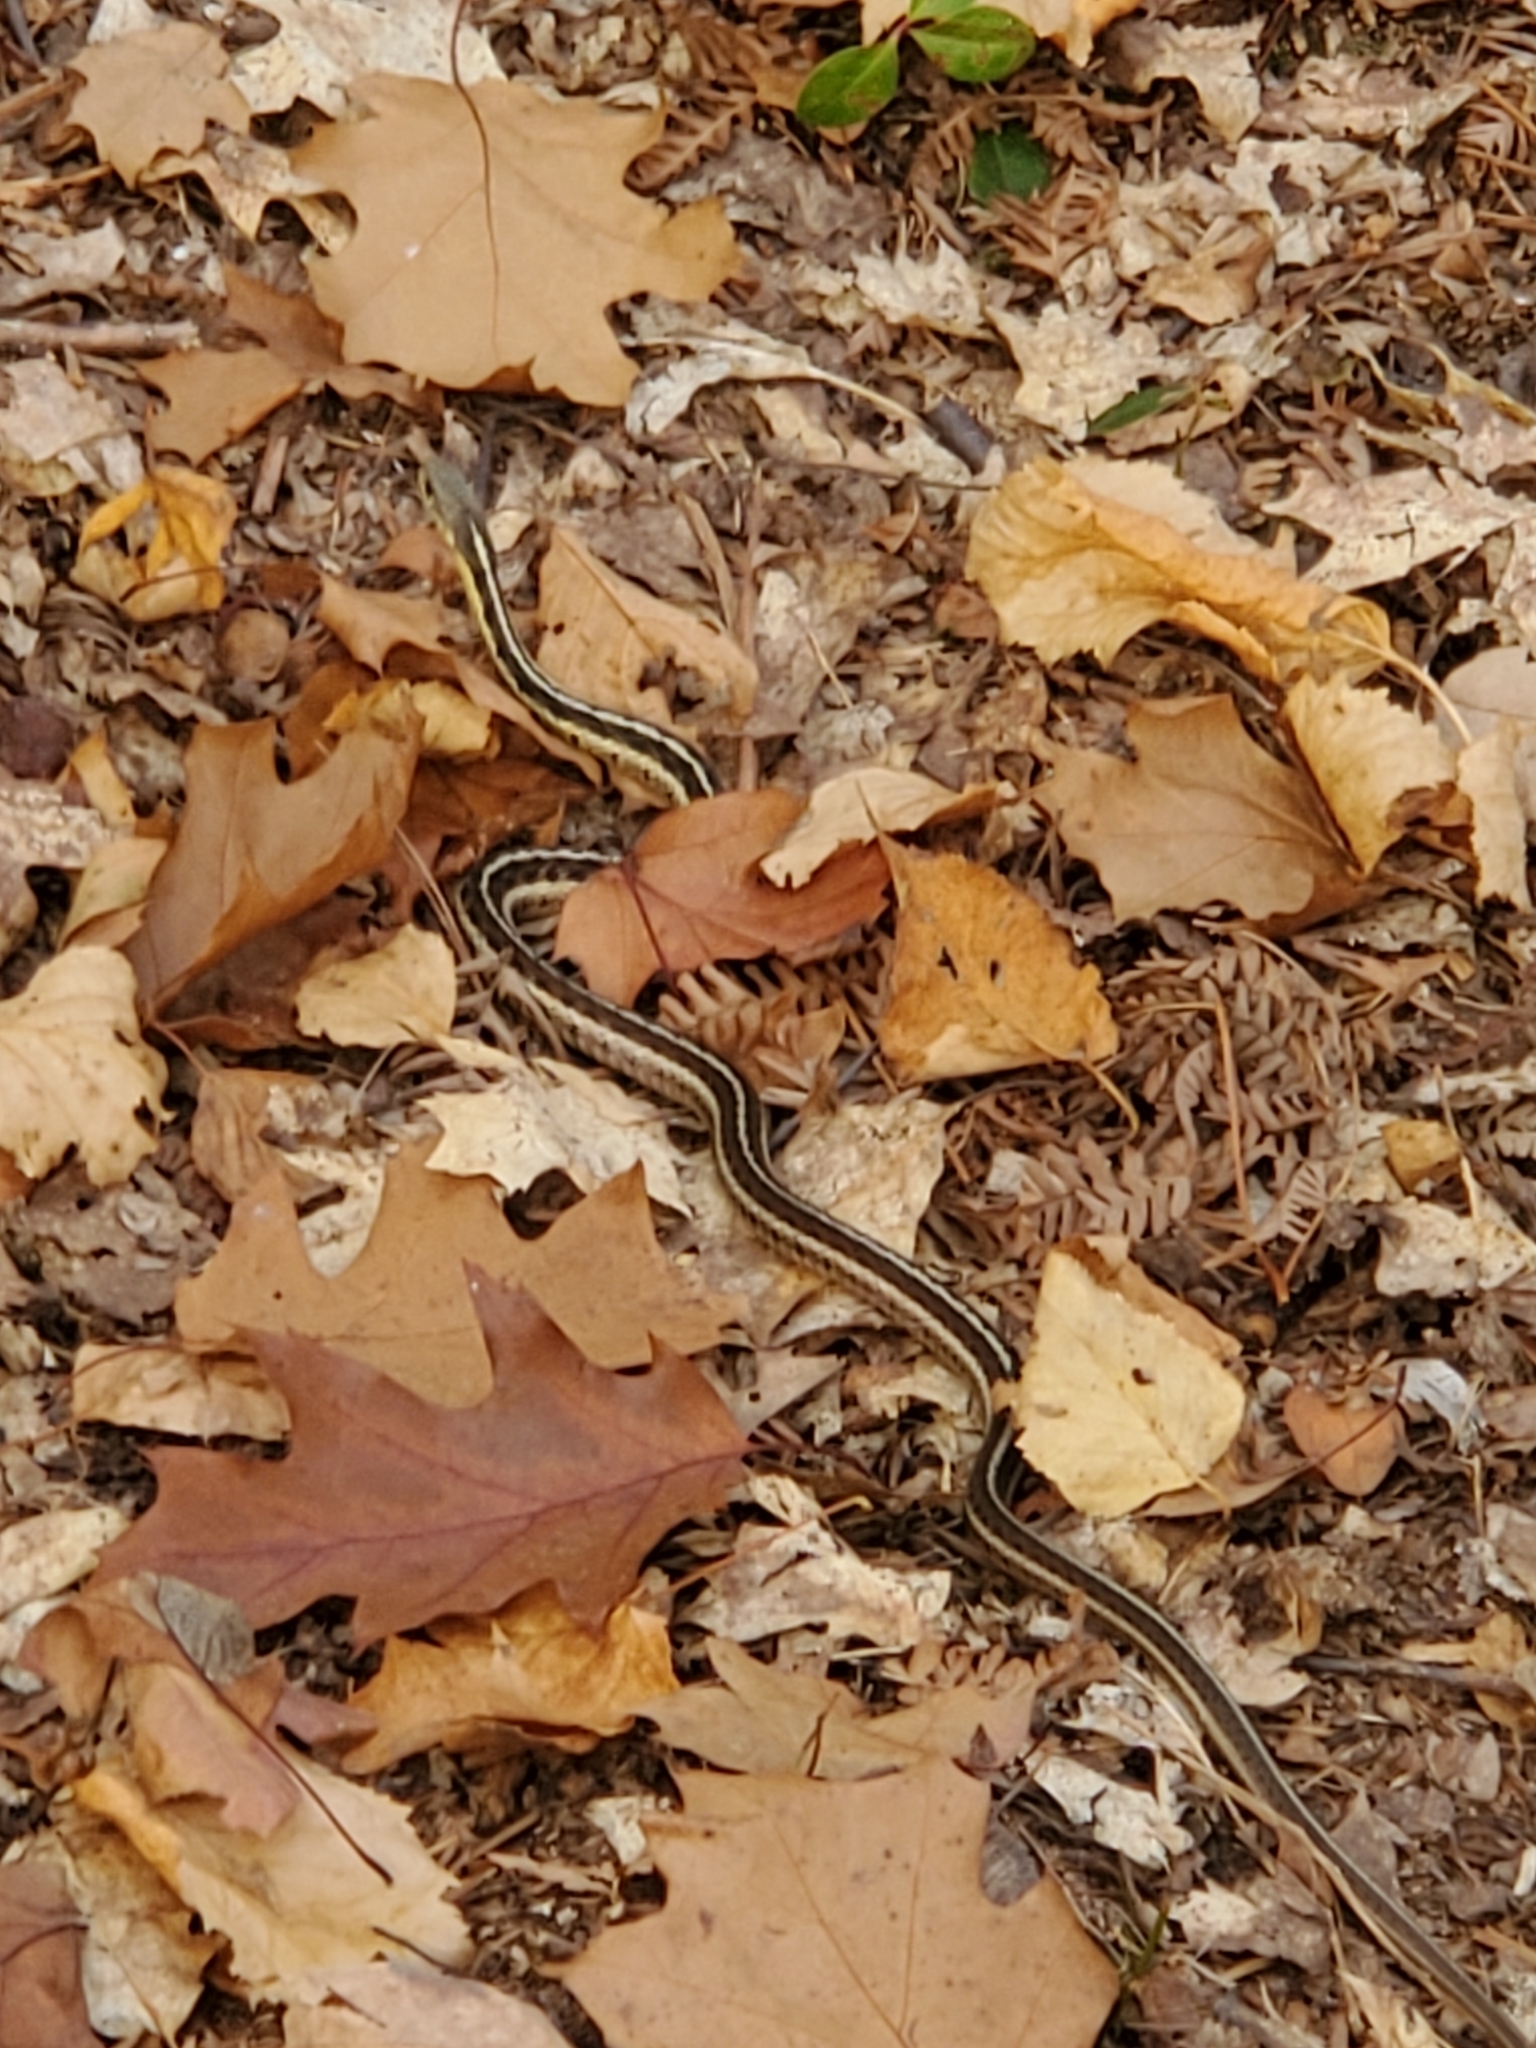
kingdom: Animalia
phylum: Chordata
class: Squamata
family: Colubridae
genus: Thamnophis
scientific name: Thamnophis sirtalis
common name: Common garter snake
